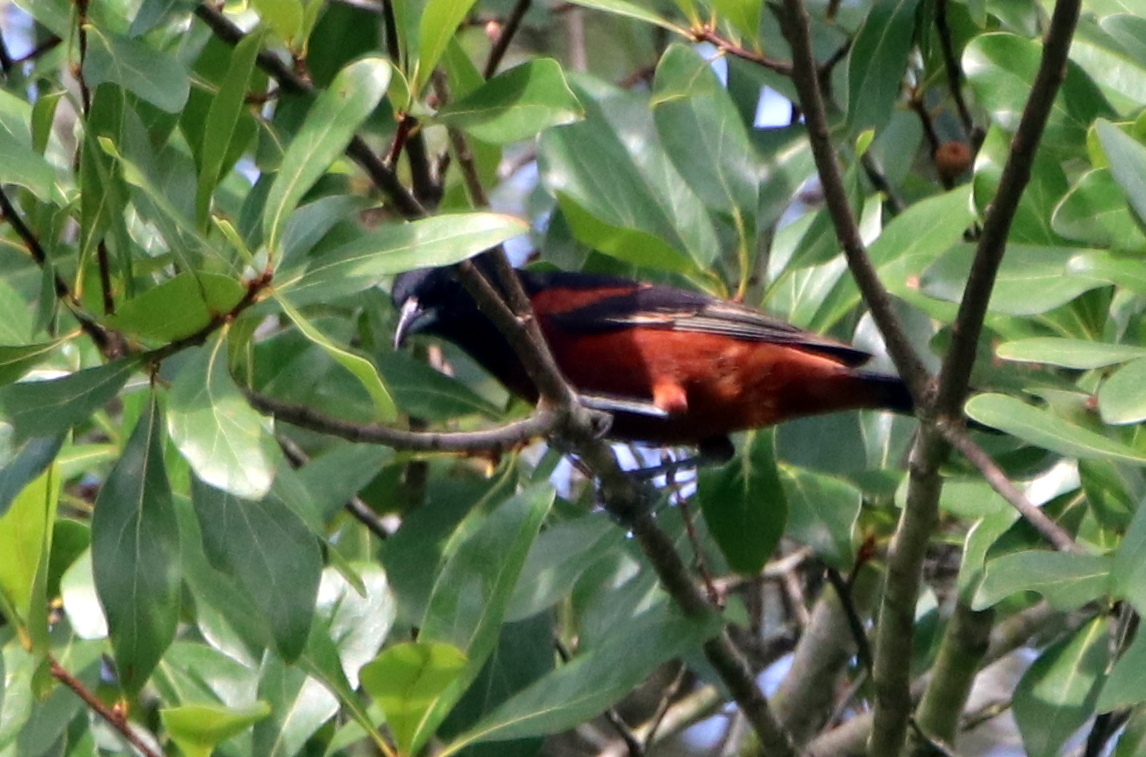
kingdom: Animalia
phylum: Chordata
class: Aves
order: Passeriformes
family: Icteridae
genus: Icterus
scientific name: Icterus spurius
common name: Orchard oriole
